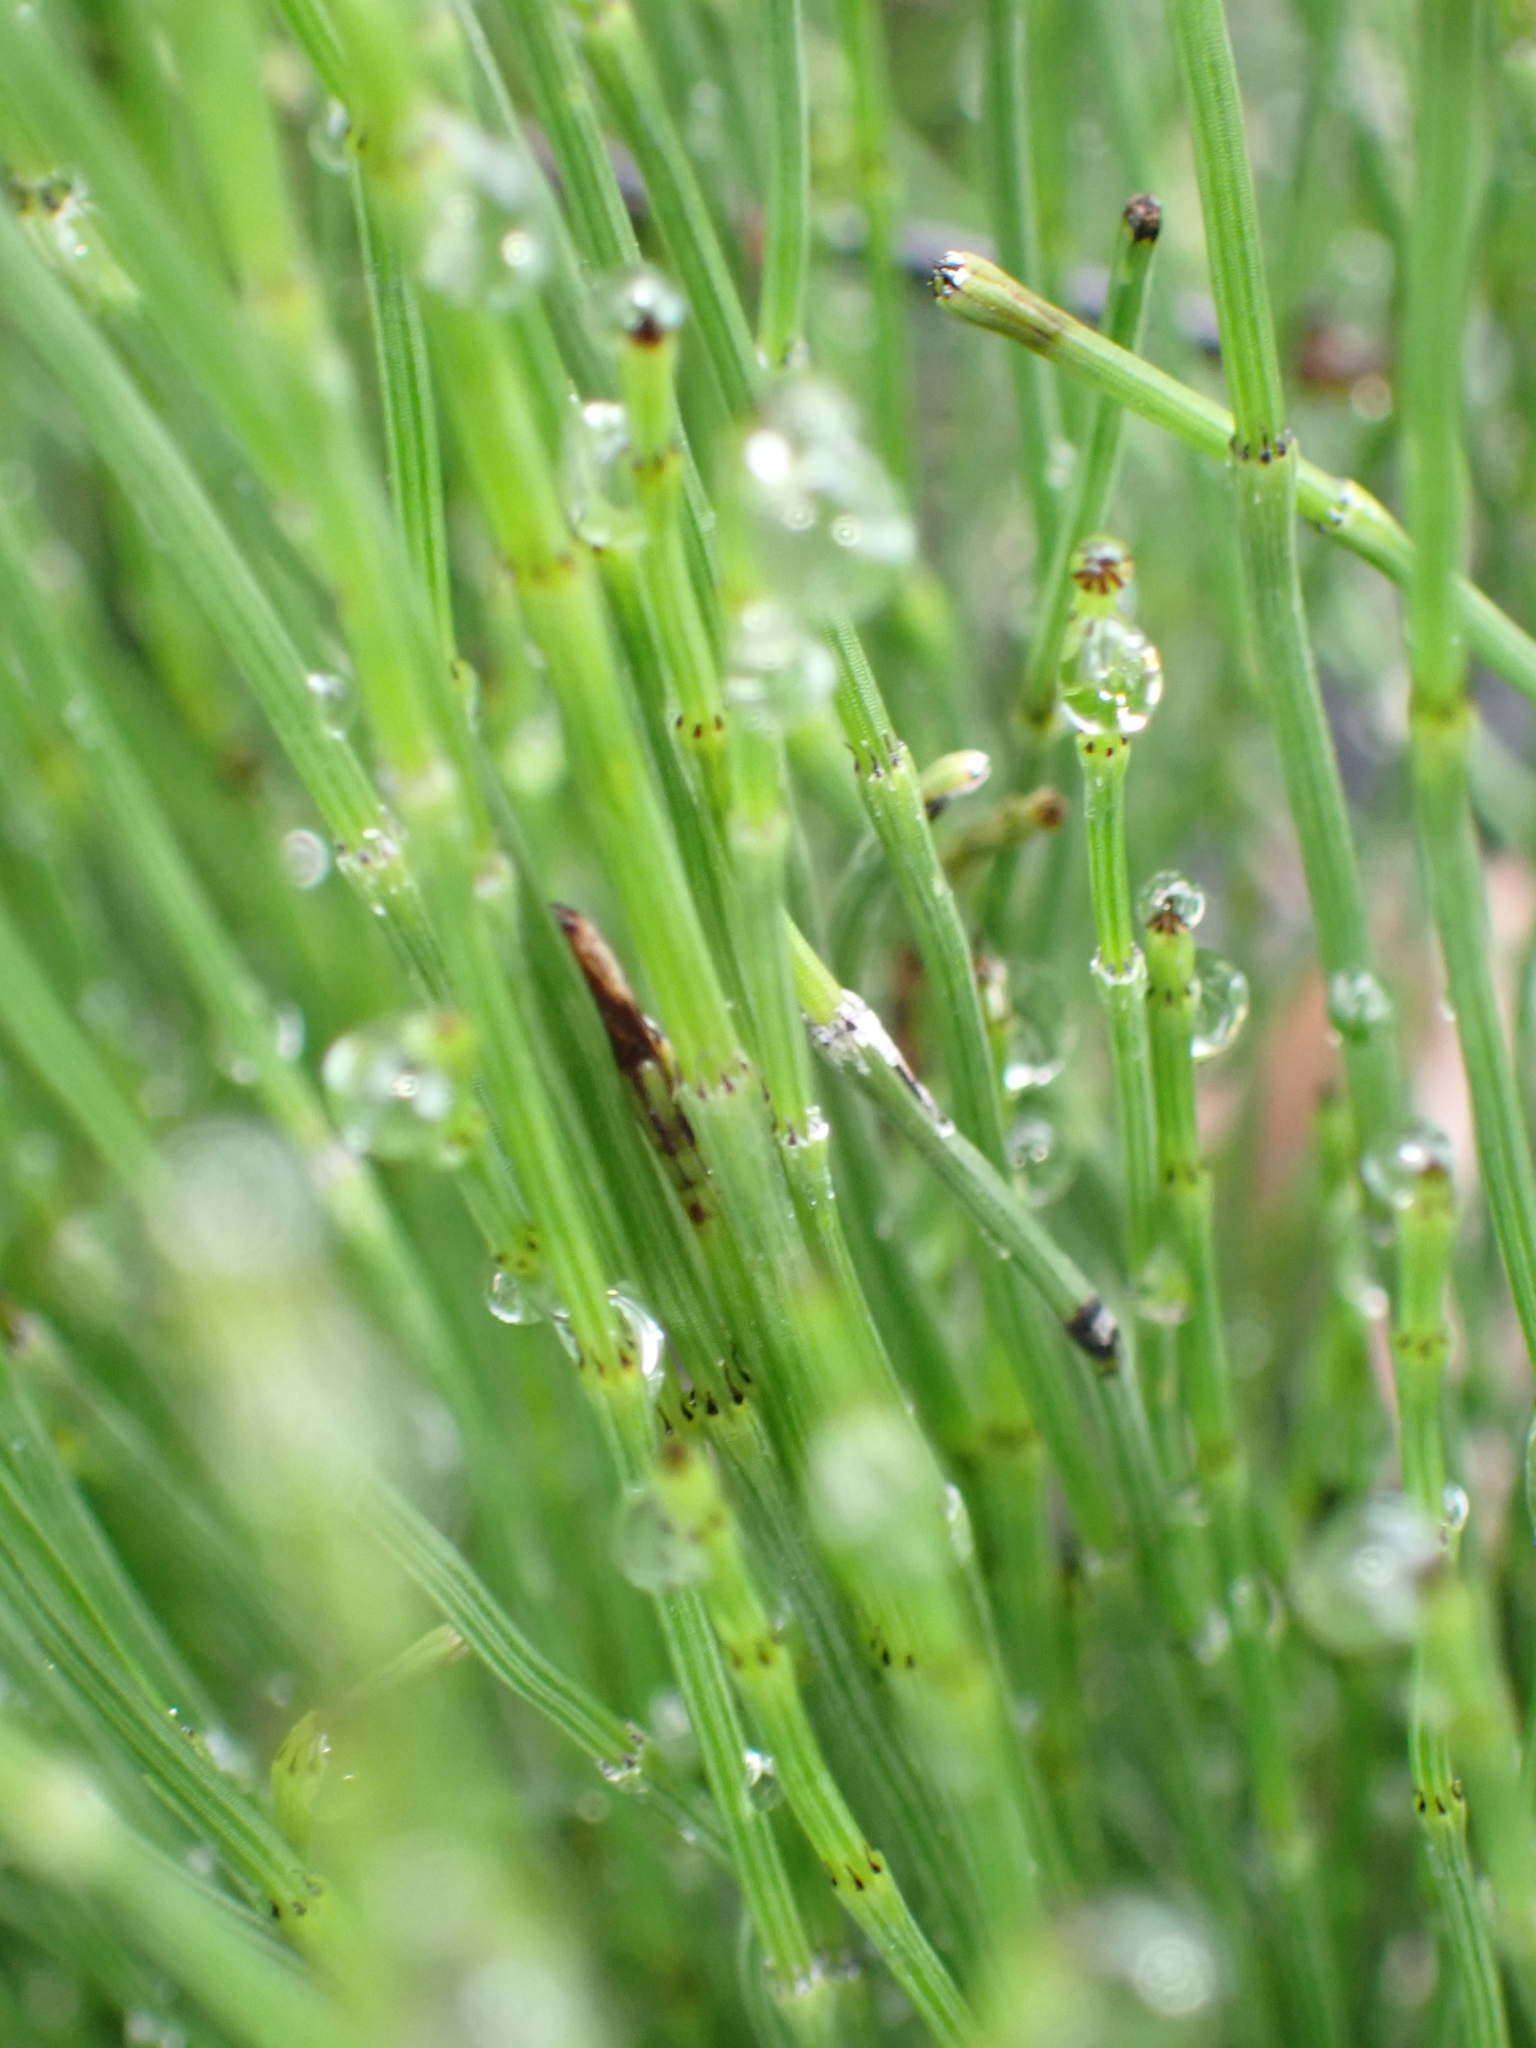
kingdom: Plantae
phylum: Tracheophyta
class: Polypodiopsida
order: Equisetales
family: Equisetaceae
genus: Equisetum
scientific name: Equisetum ramosissimum
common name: Branched horsetail
